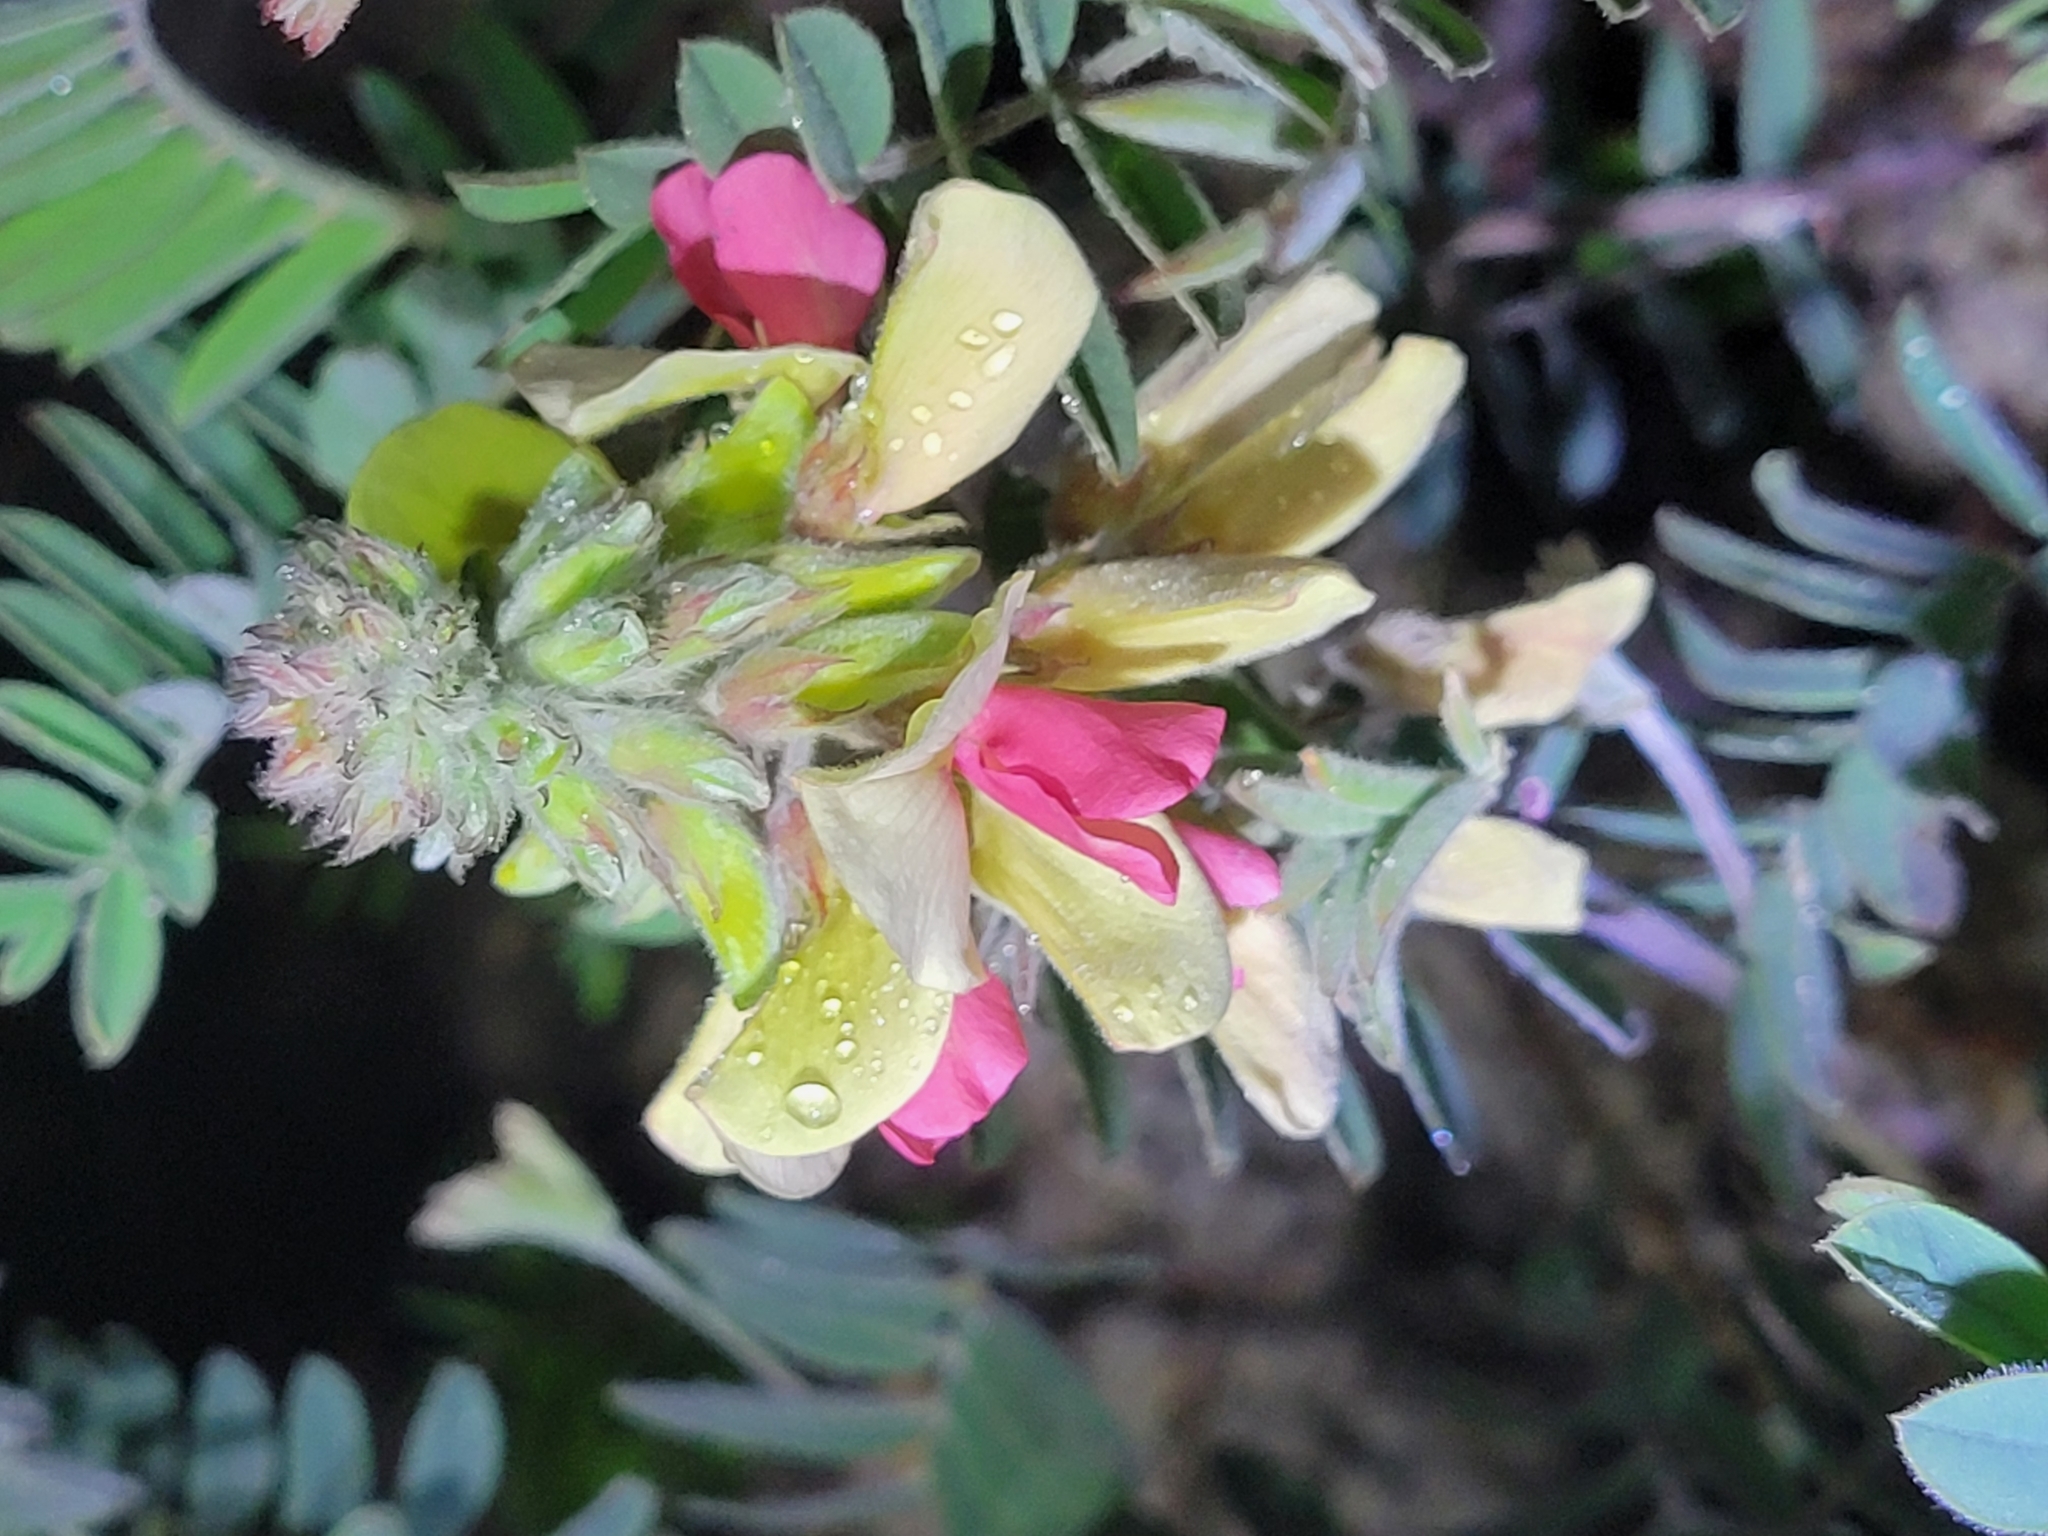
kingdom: Plantae
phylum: Tracheophyta
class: Magnoliopsida
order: Fabales
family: Fabaceae
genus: Tephrosia
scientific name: Tephrosia virginiana
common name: Rabbit-pea
